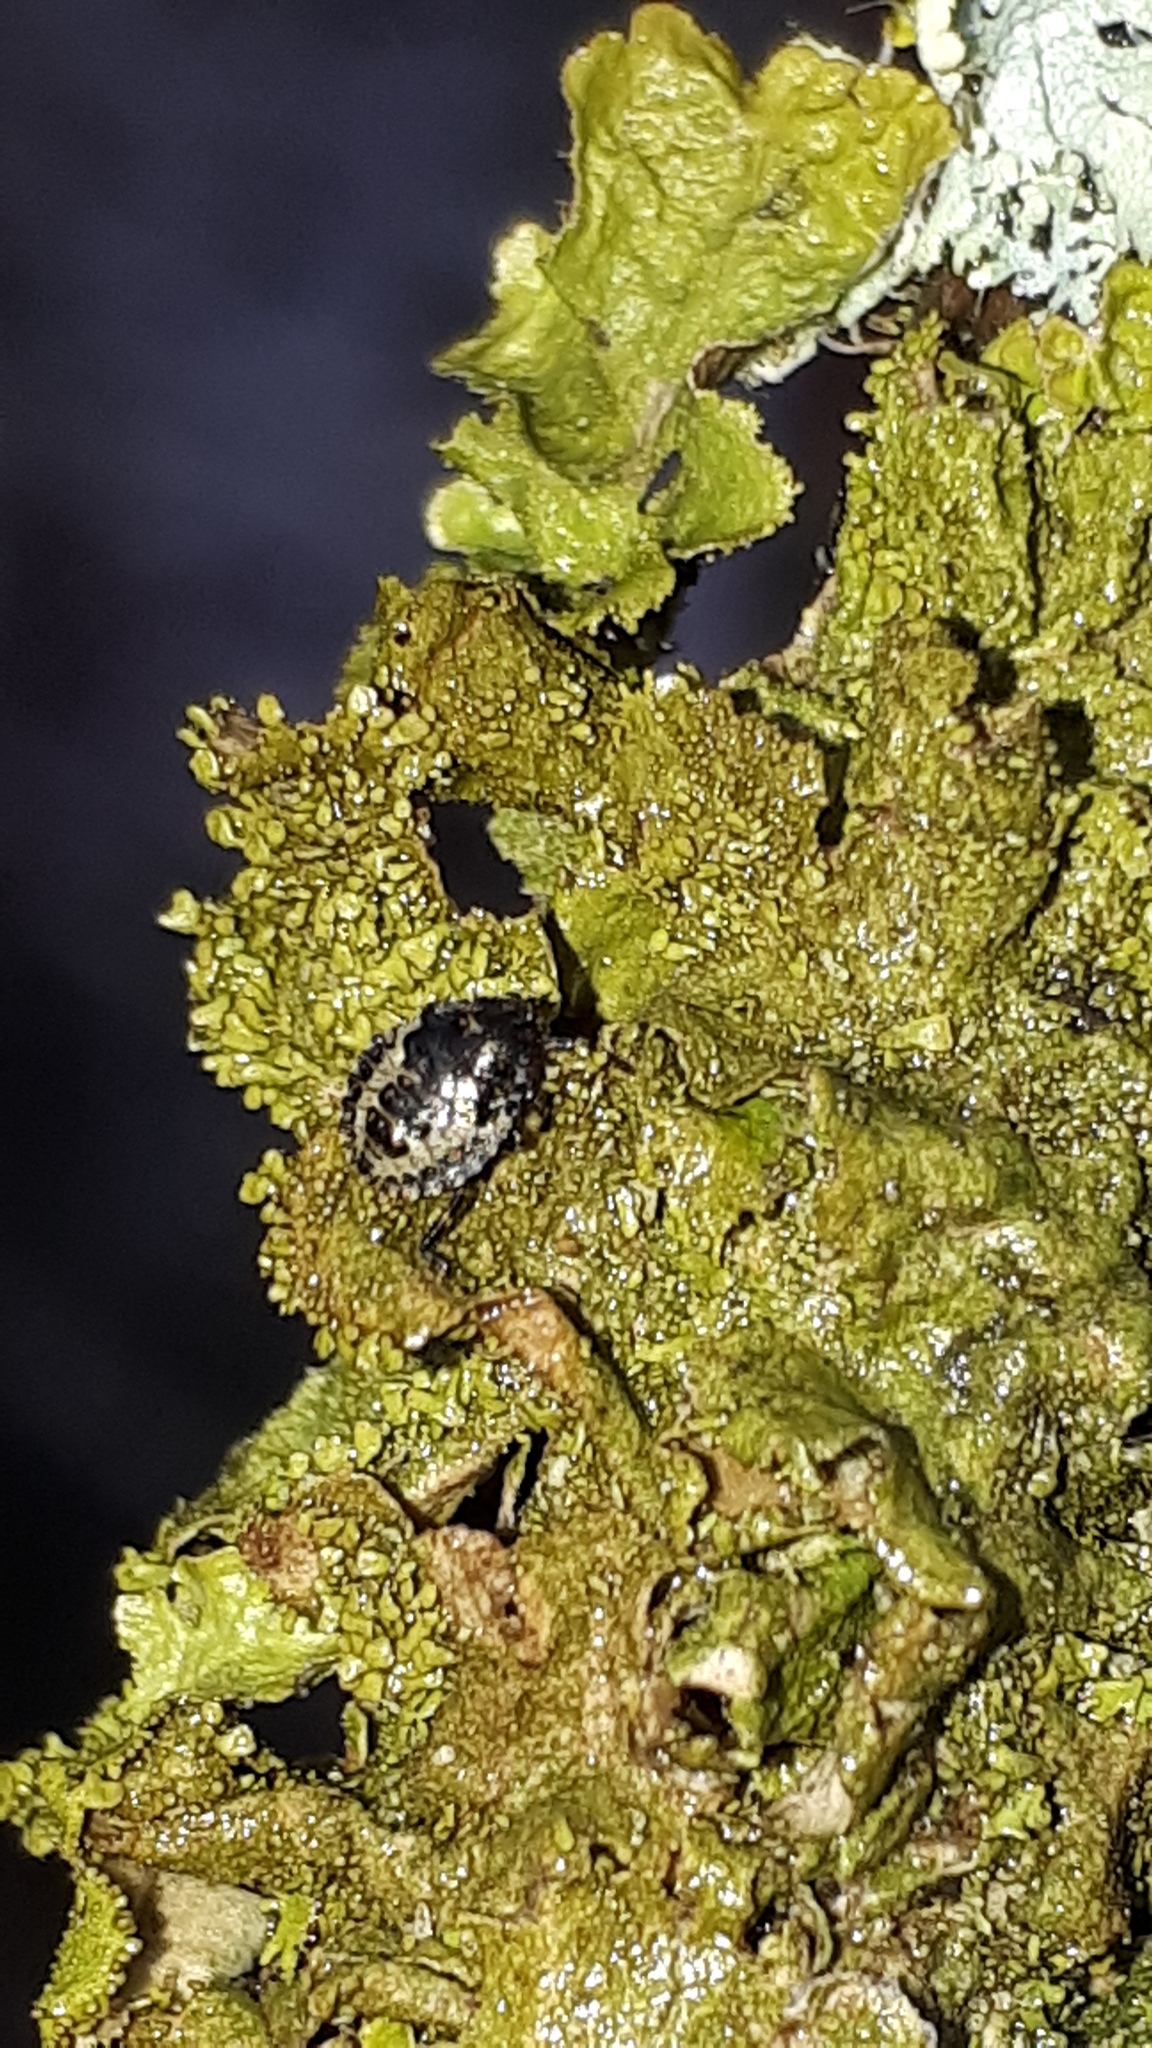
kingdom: Animalia
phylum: Arthropoda
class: Insecta
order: Hemiptera
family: Pentatomidae
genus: Pentatoma
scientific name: Pentatoma rufipes
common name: Forest bug
